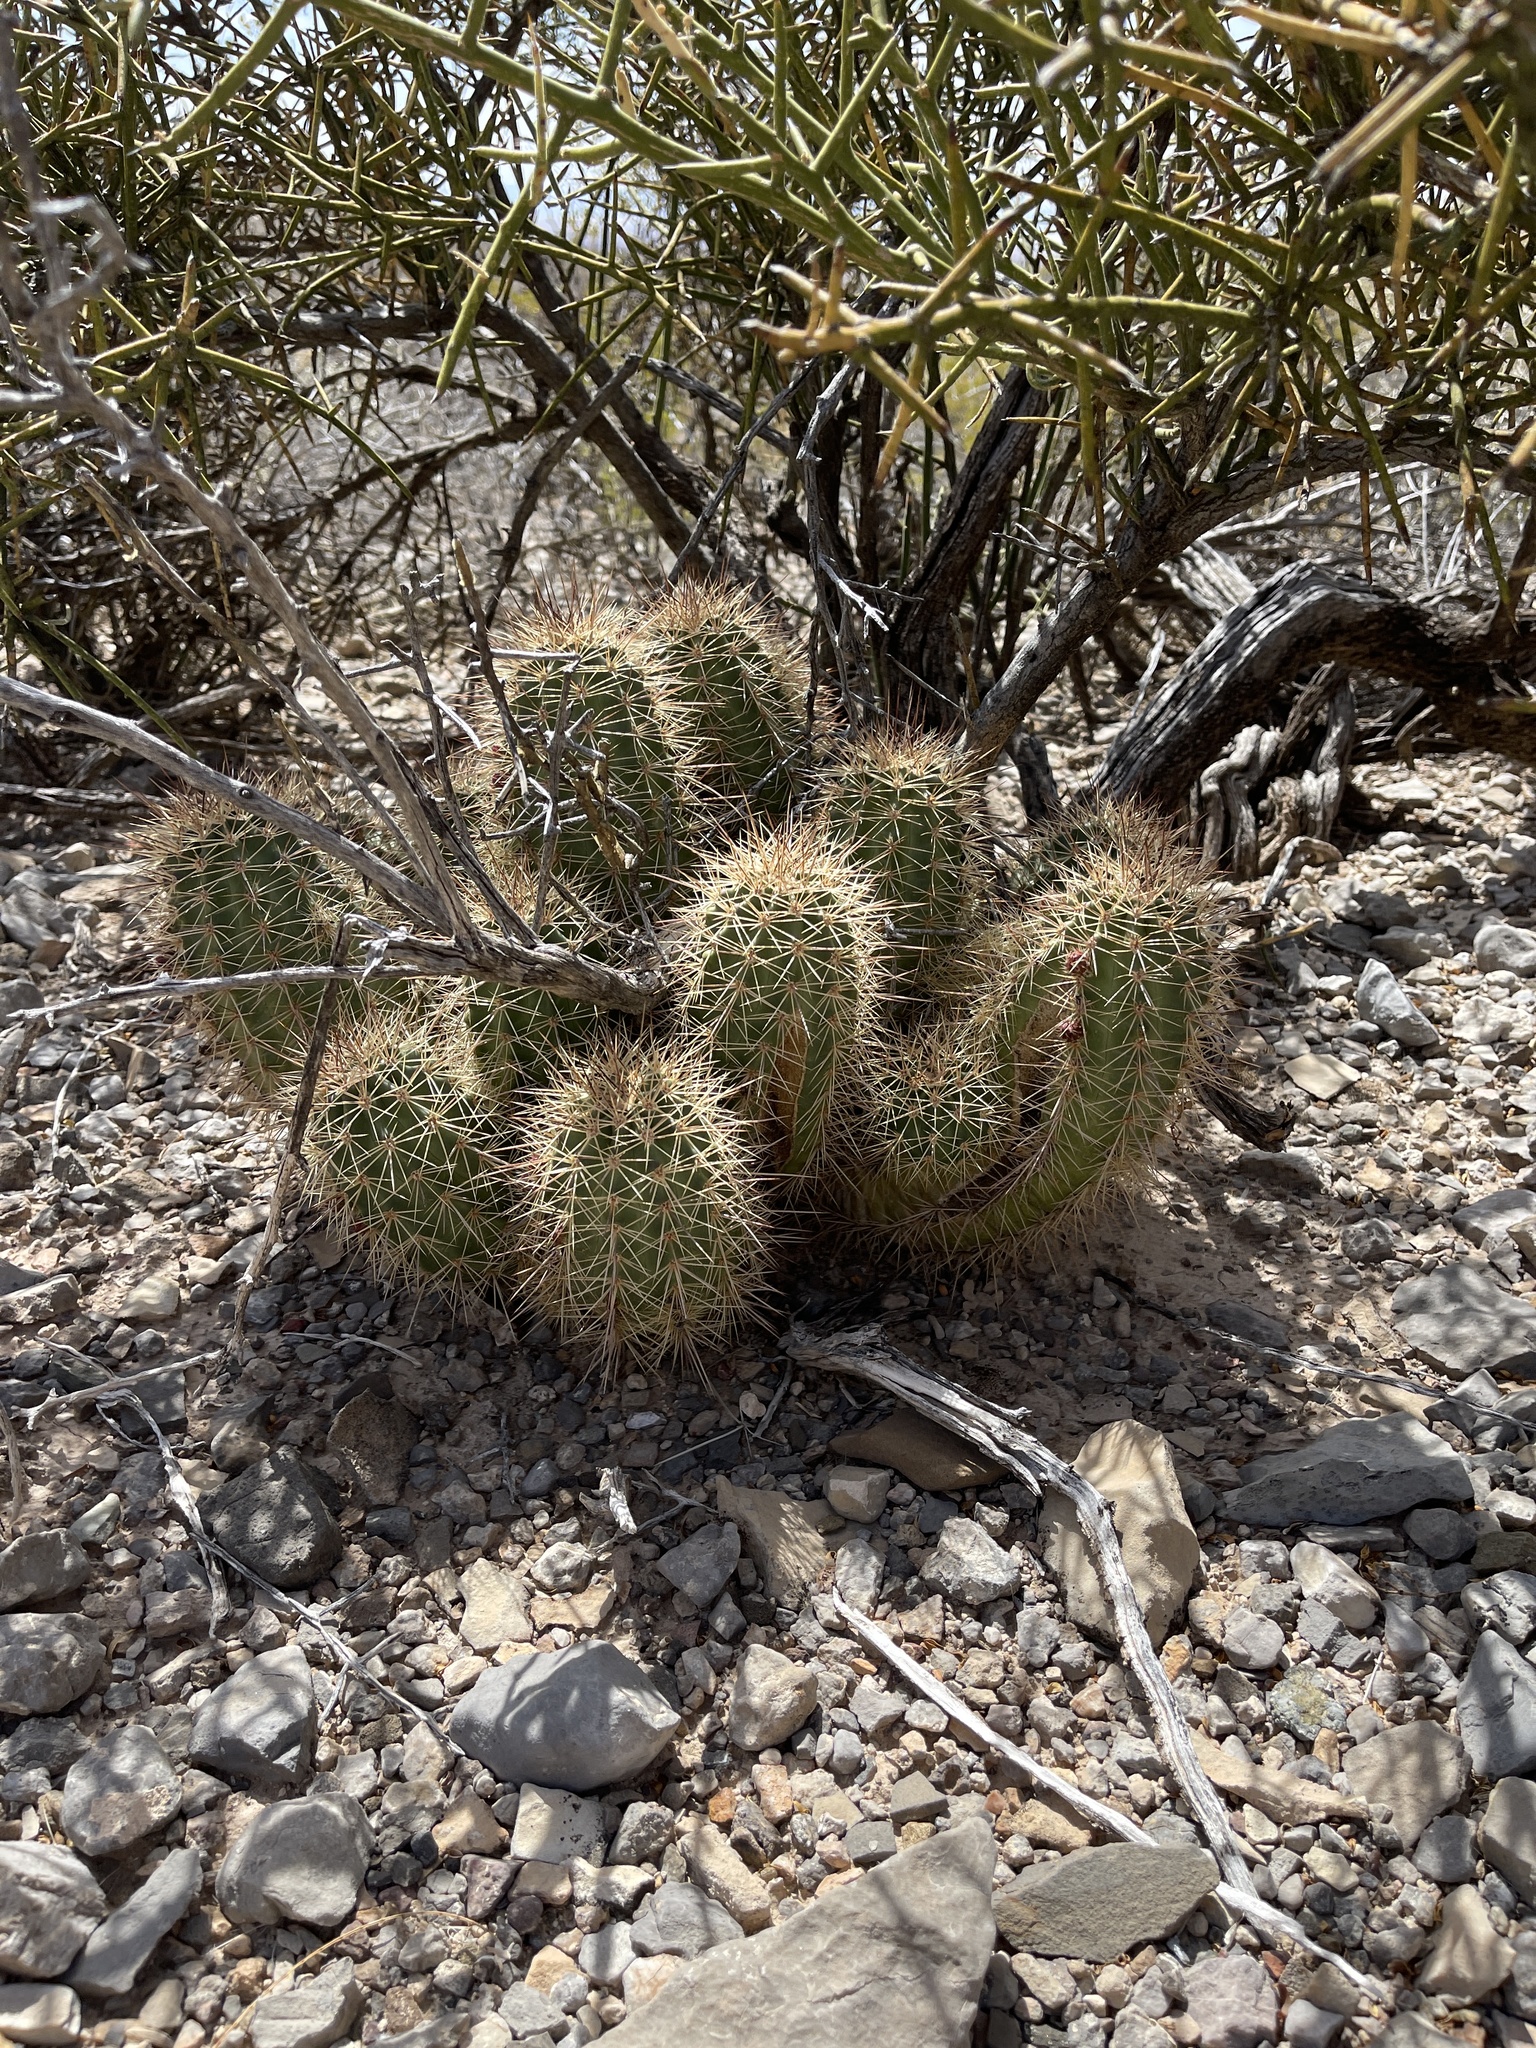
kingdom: Plantae
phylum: Tracheophyta
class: Magnoliopsida
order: Caryophyllales
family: Cactaceae
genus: Echinocereus
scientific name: Echinocereus coccineus
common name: Scarlet hedgehog cactus
